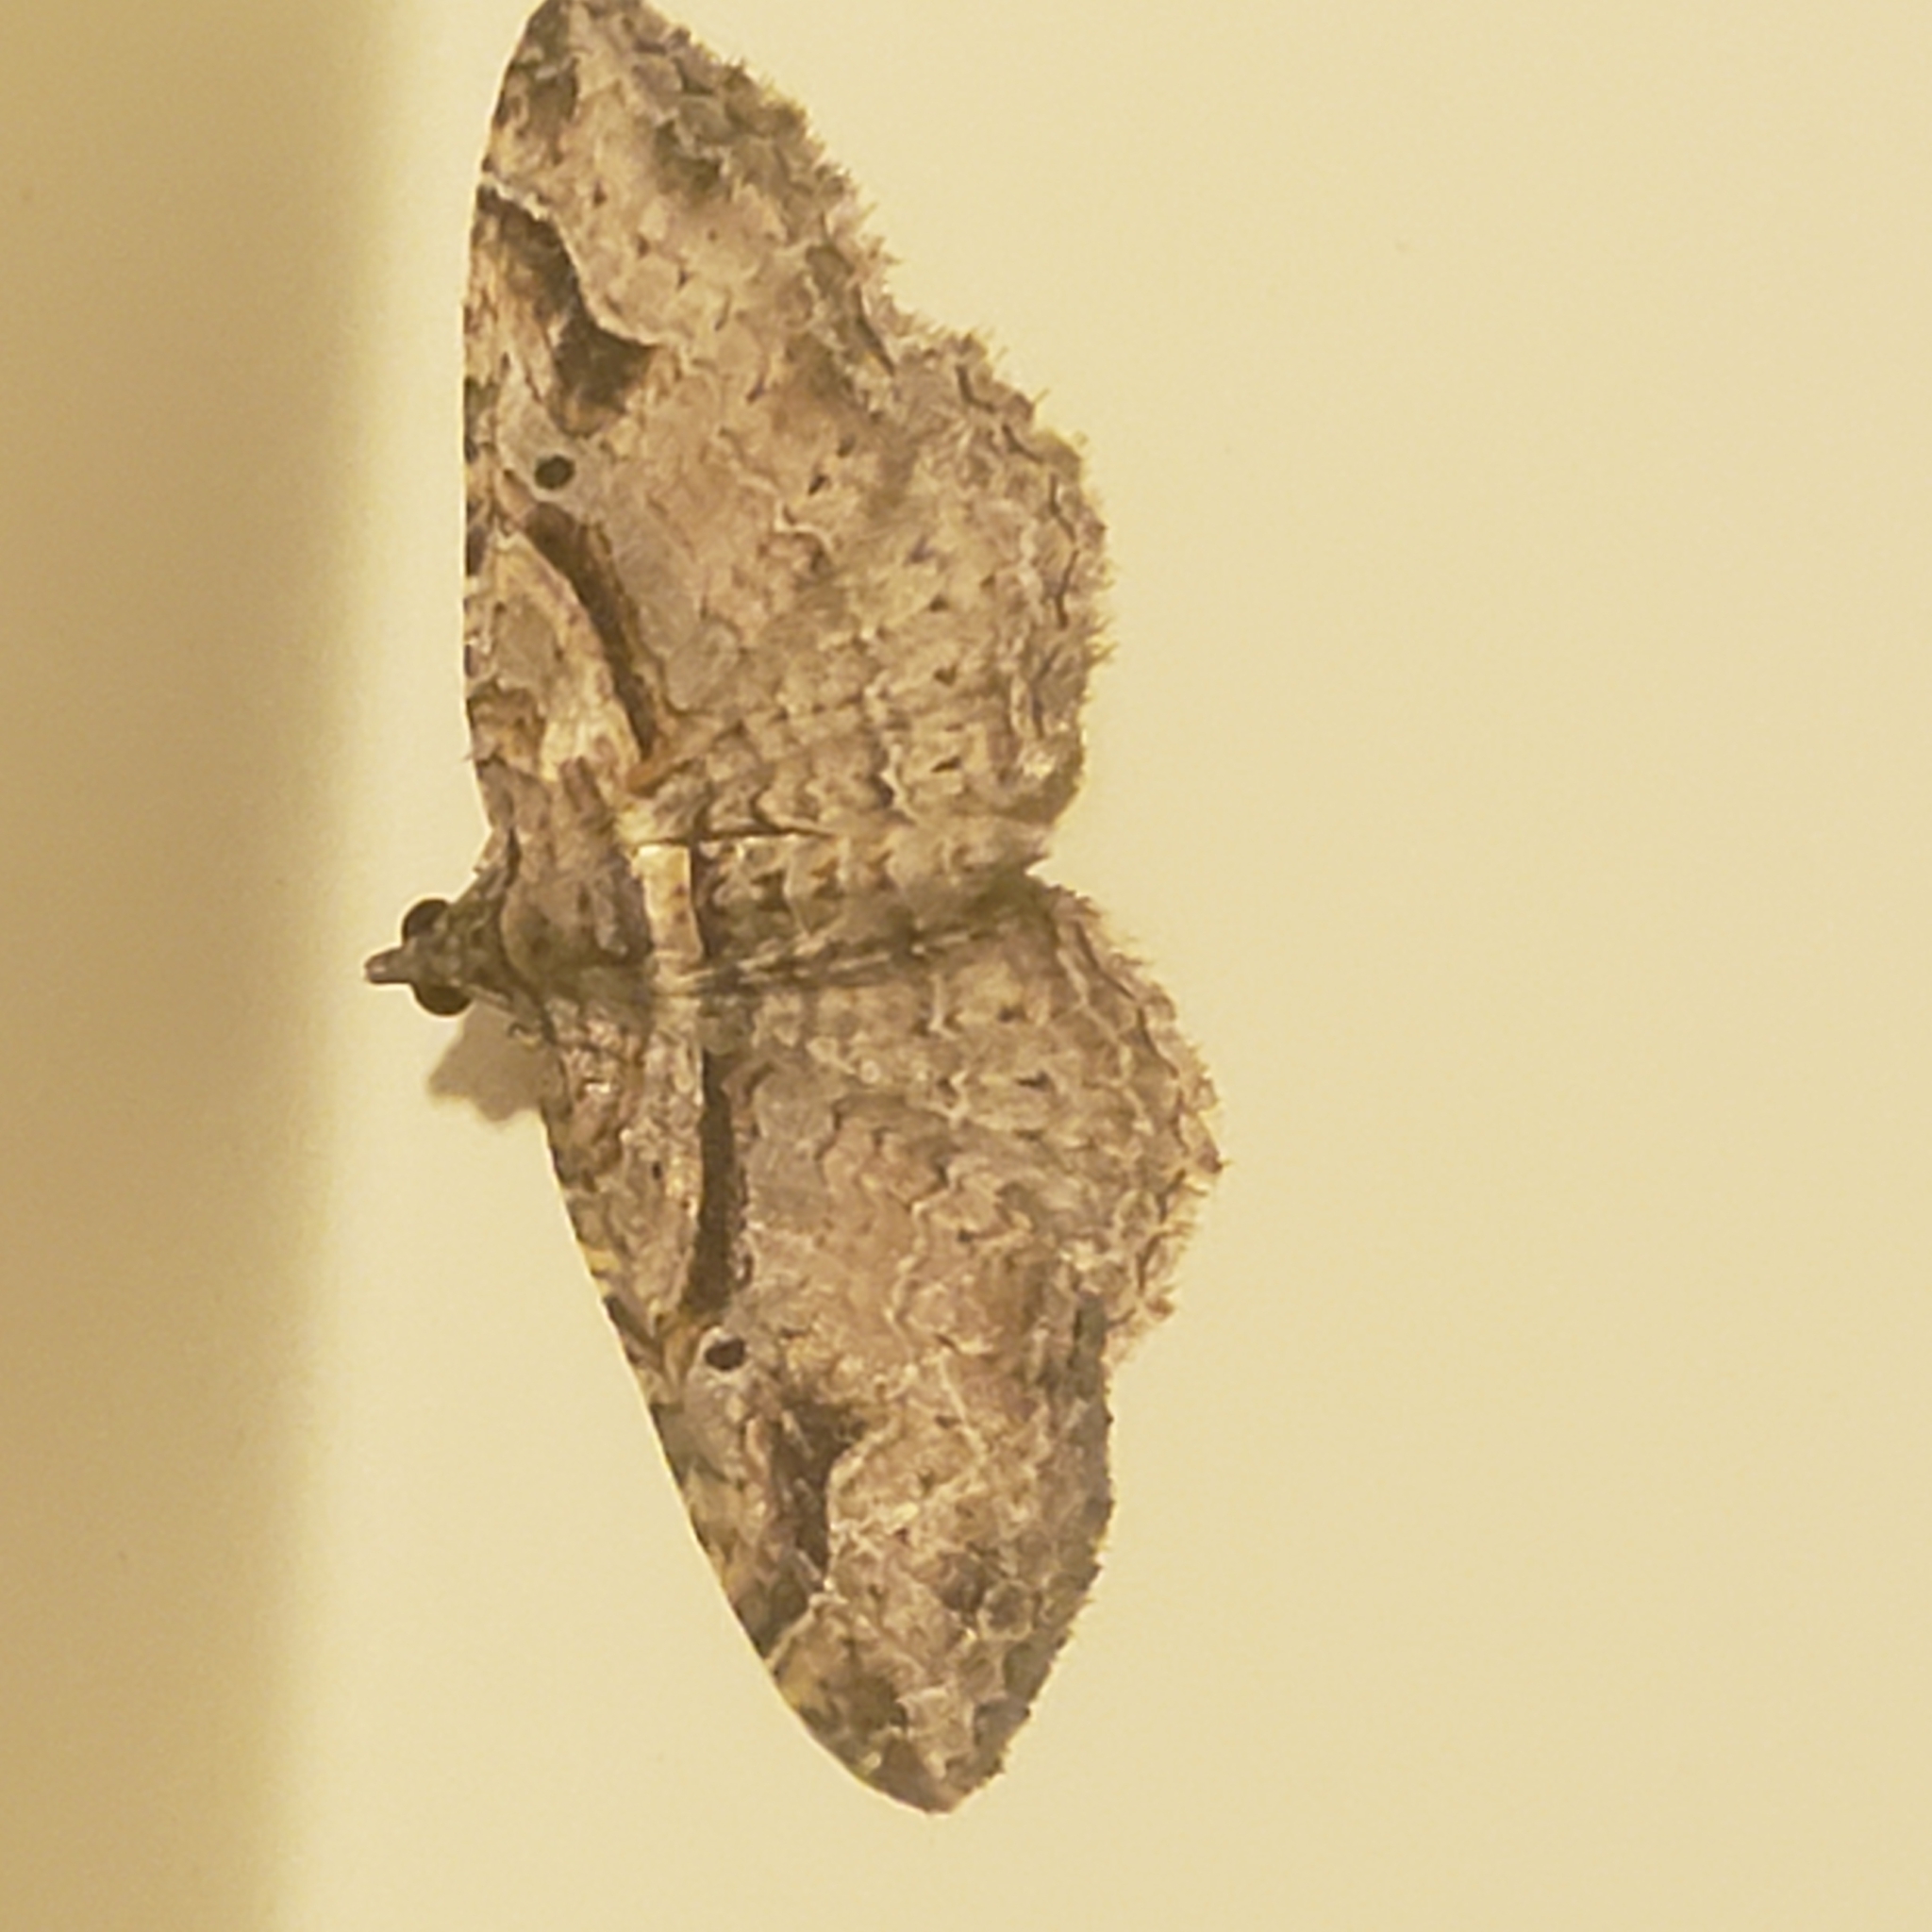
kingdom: Animalia
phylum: Arthropoda
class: Insecta
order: Lepidoptera
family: Geometridae
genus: Costaconvexa
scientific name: Costaconvexa centrostrigaria
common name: Bent-line carpet
